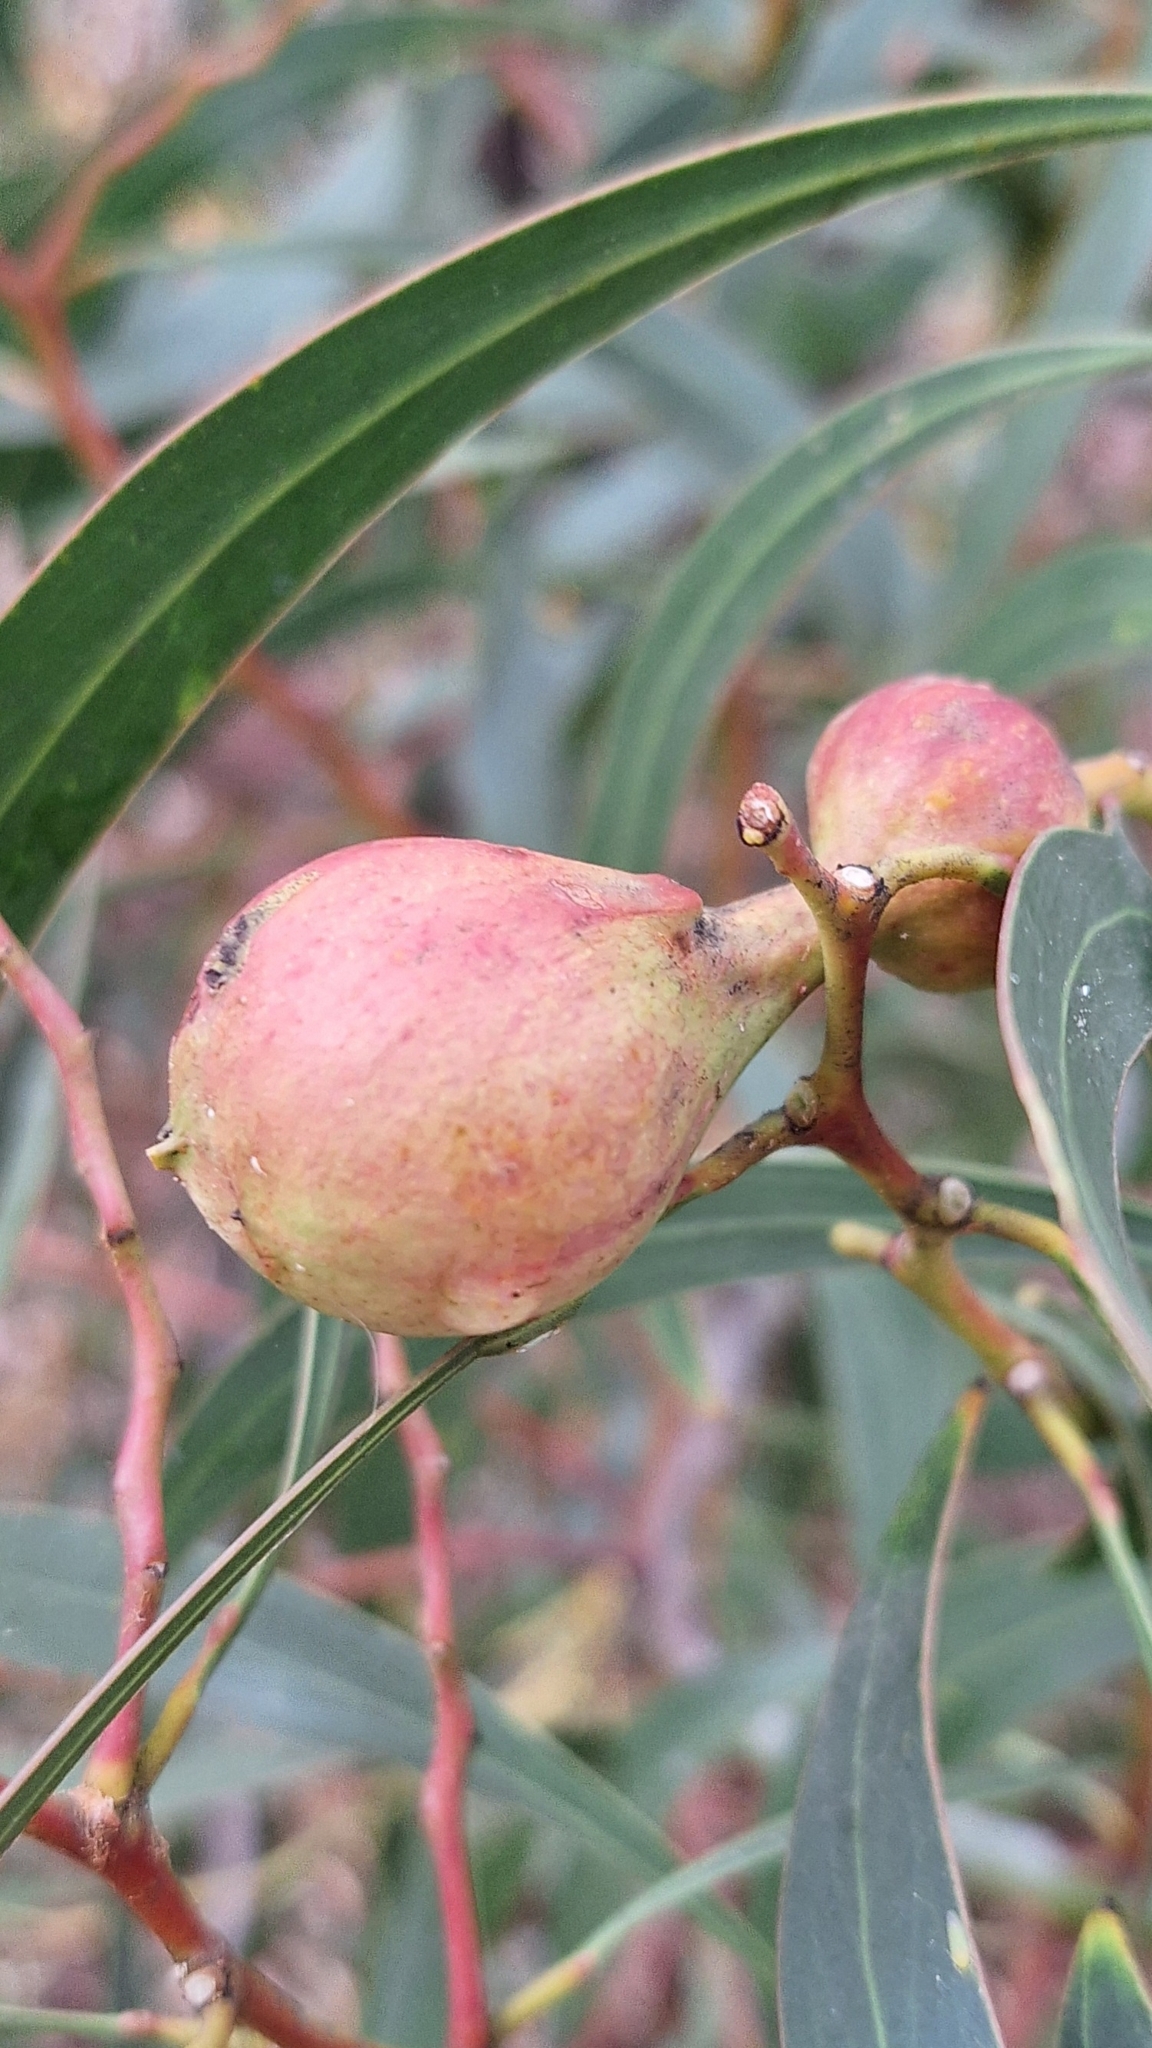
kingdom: Animalia
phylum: Arthropoda
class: Insecta
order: Hymenoptera
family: Pteromalidae
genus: Trichilogaster
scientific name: Trichilogaster signiventris
